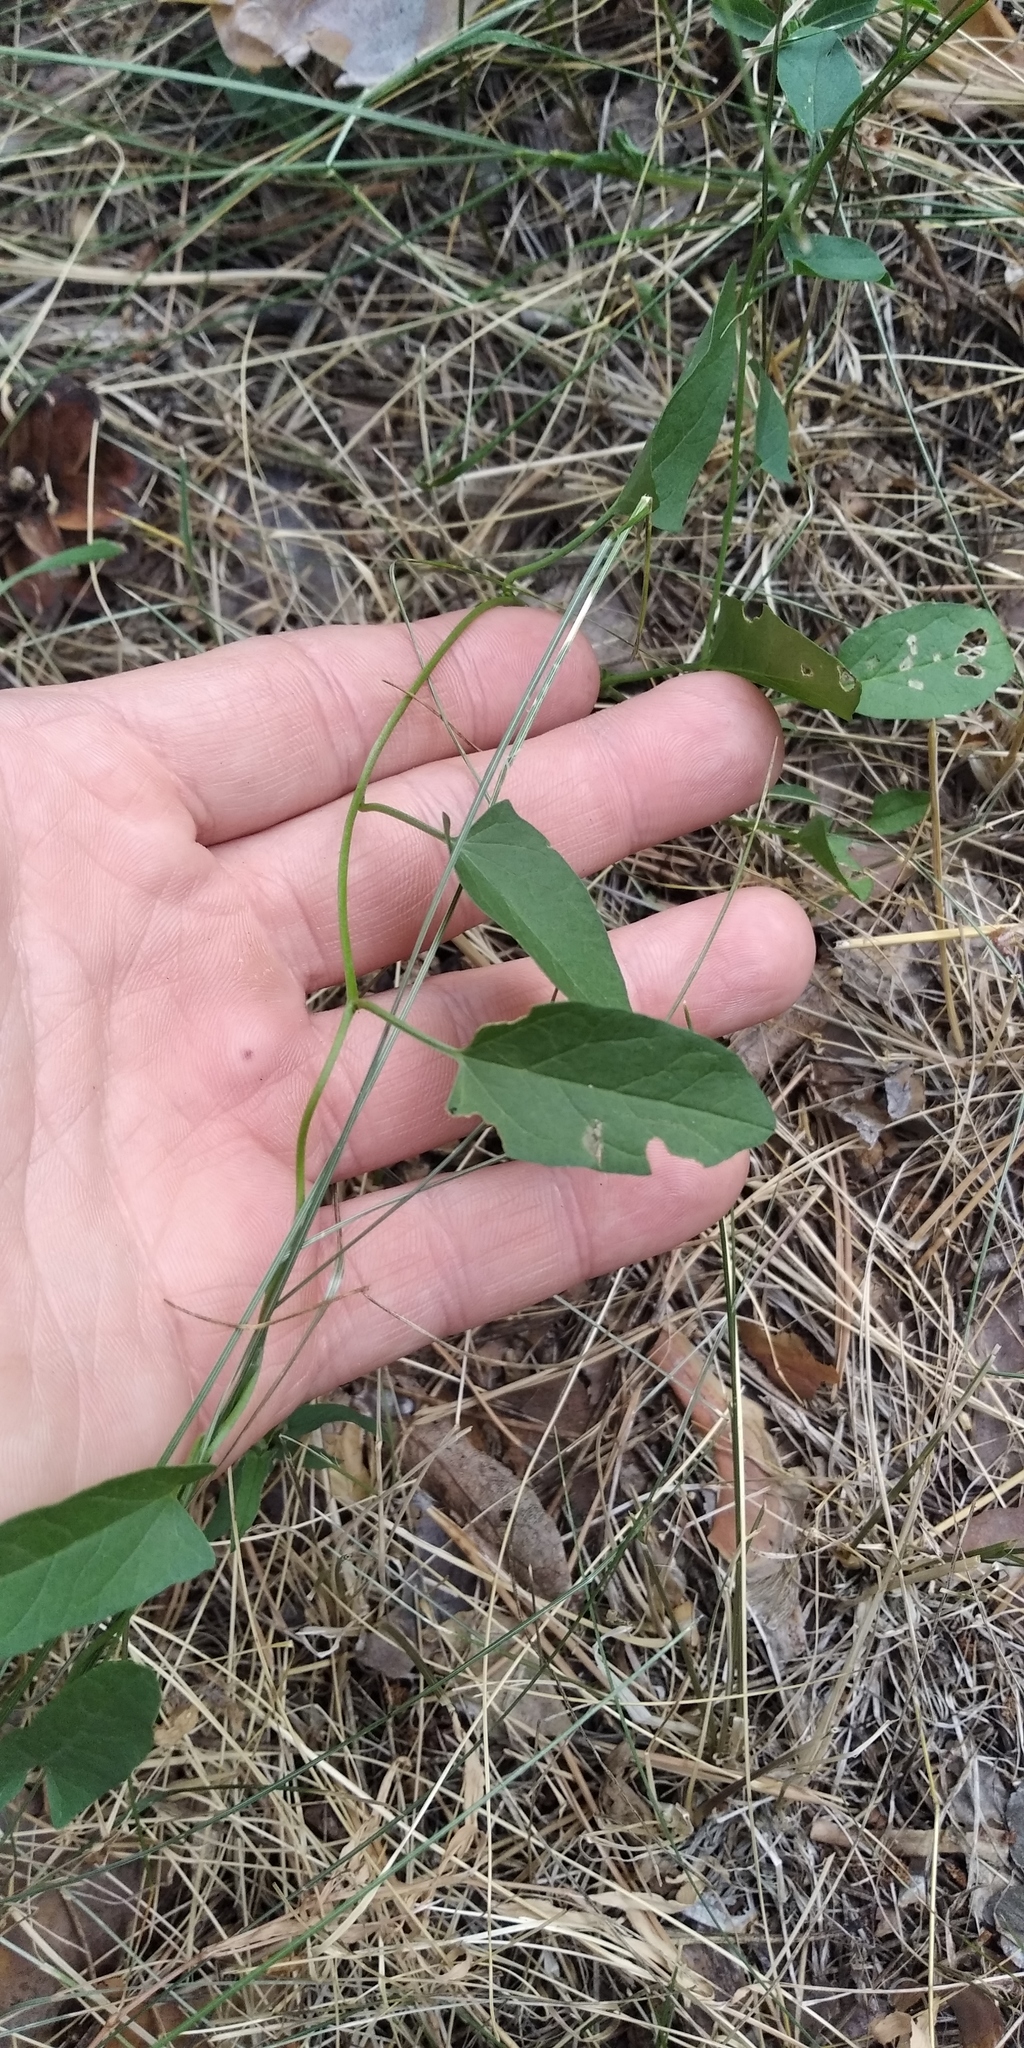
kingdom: Plantae
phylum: Tracheophyta
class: Magnoliopsida
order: Solanales
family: Convolvulaceae
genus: Convolvulus
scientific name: Convolvulus arvensis
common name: Field bindweed
